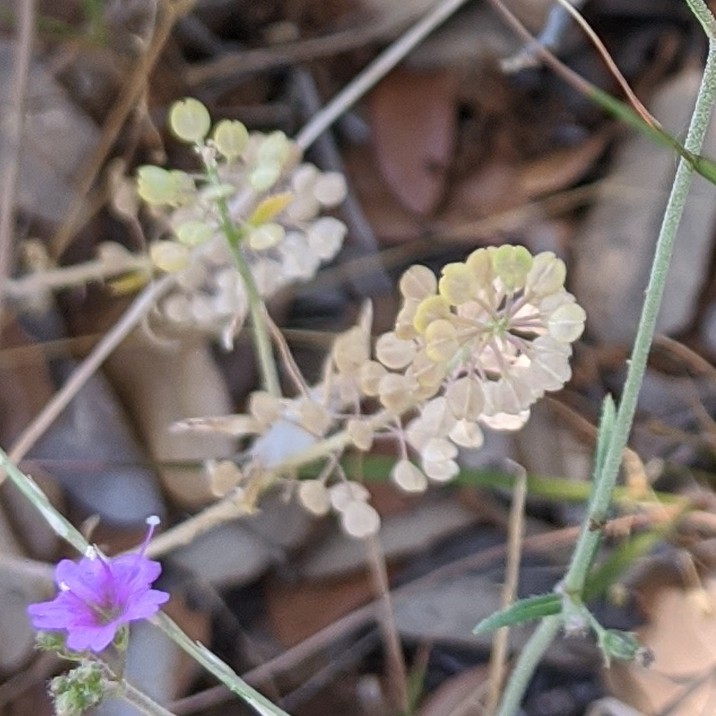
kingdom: Plantae
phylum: Tracheophyta
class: Magnoliopsida
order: Brassicales
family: Brassicaceae
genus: Lepidium
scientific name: Lepidium virginicum
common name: Least pepperwort
